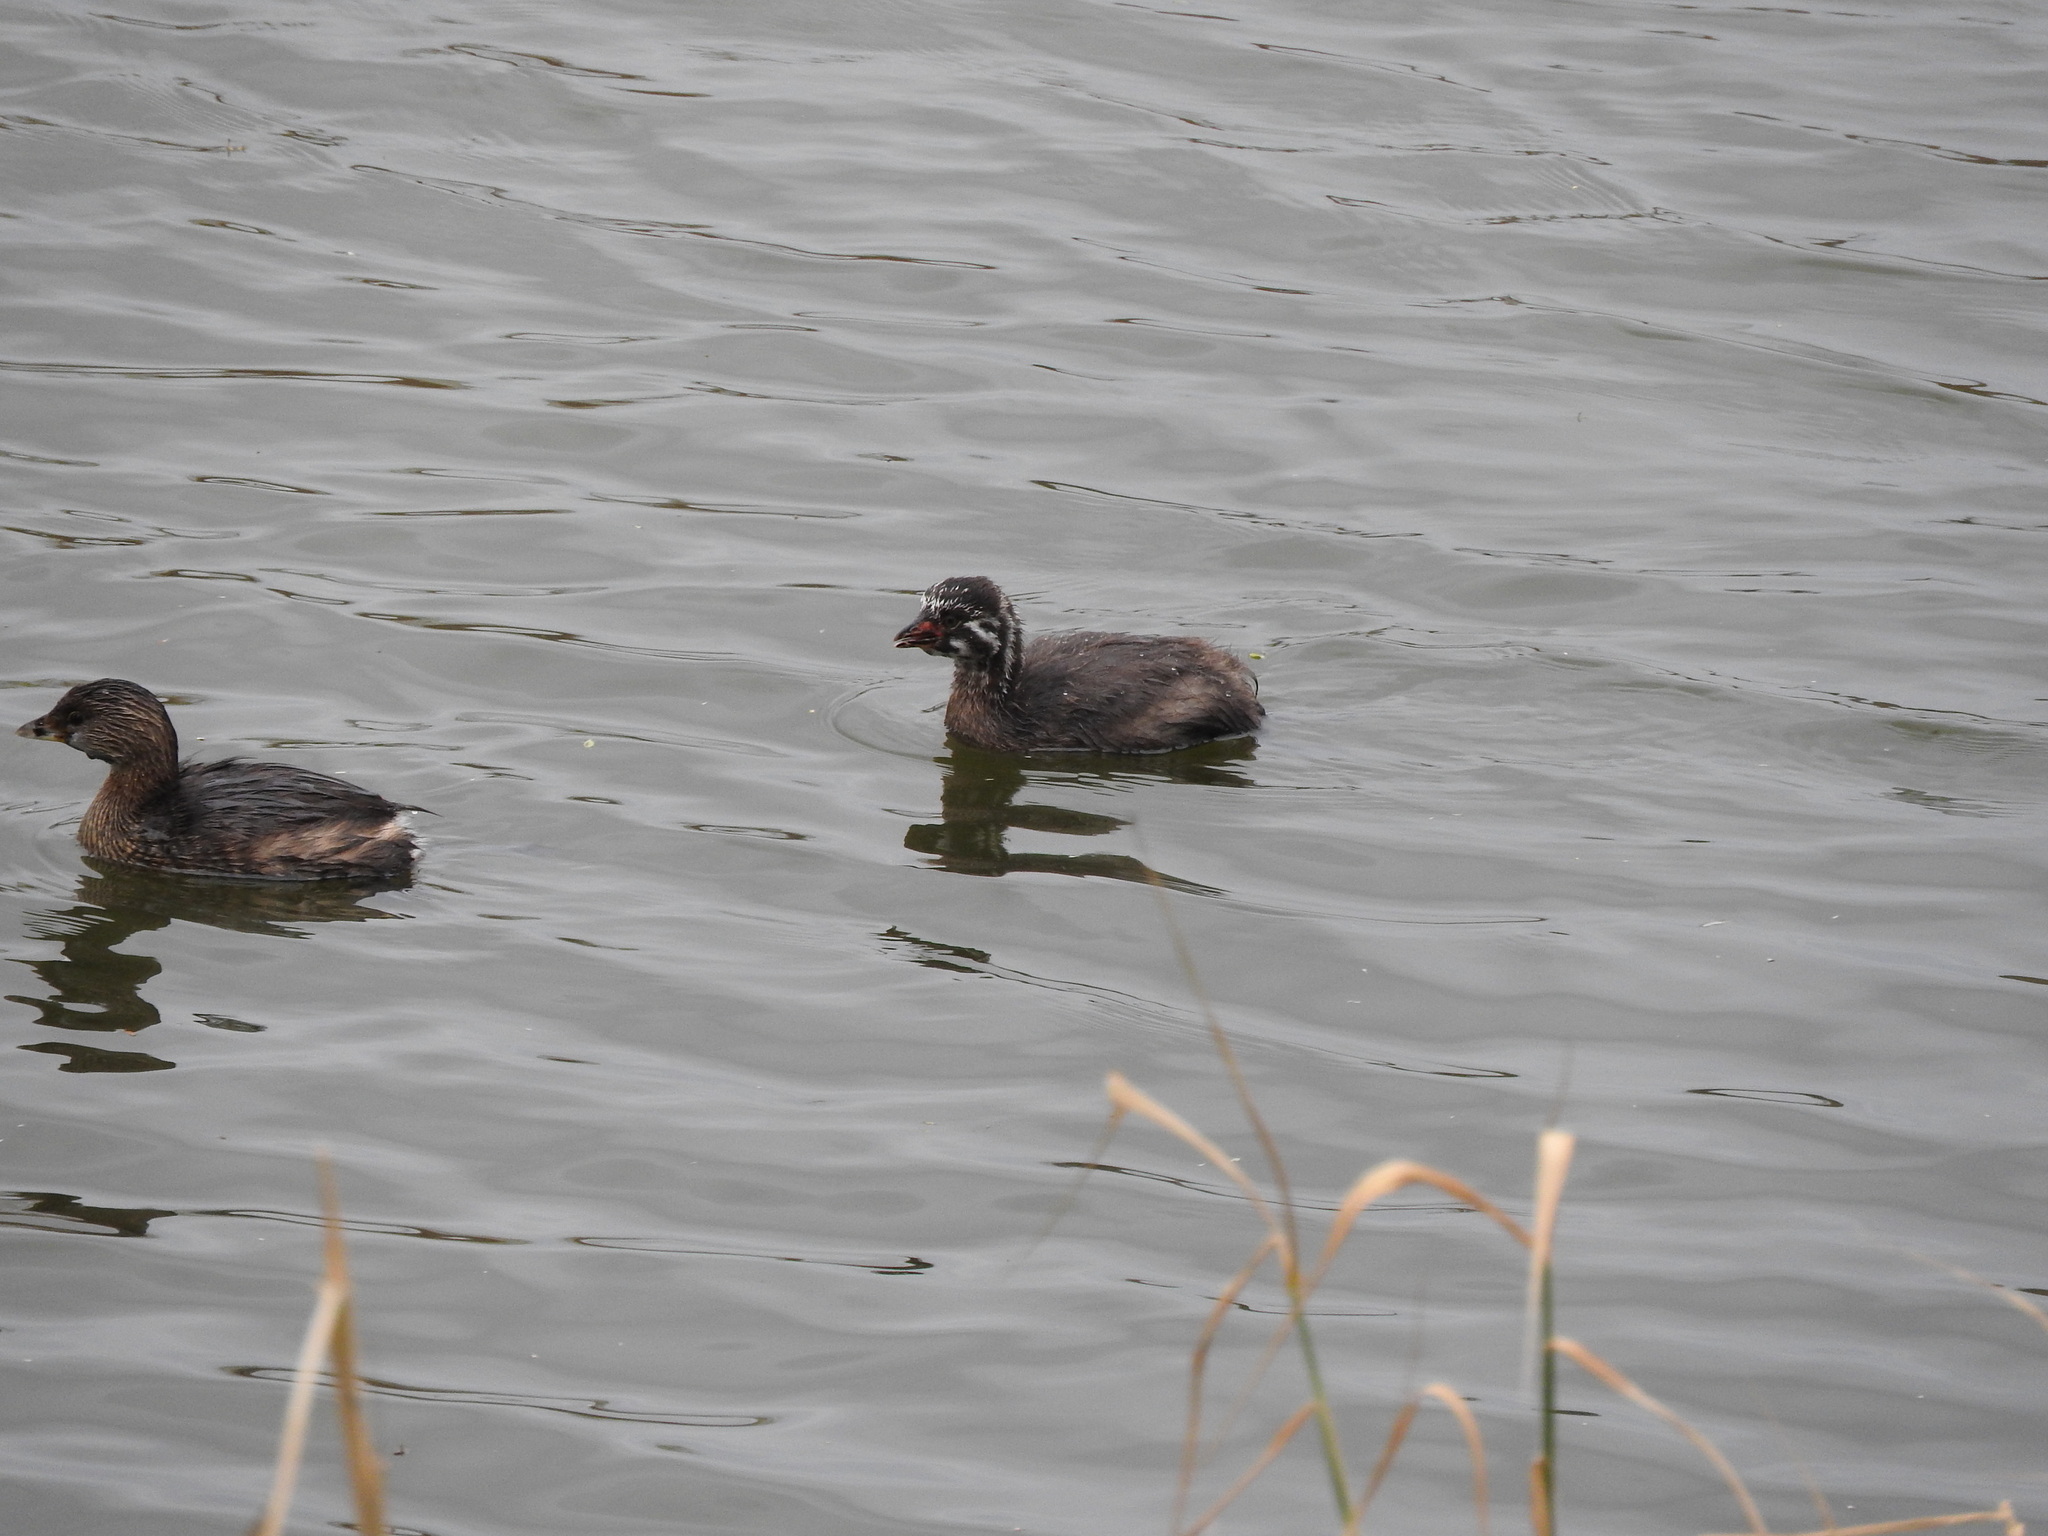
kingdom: Animalia
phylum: Chordata
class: Aves
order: Podicipediformes
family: Podicipedidae
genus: Podilymbus
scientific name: Podilymbus podiceps
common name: Pied-billed grebe
